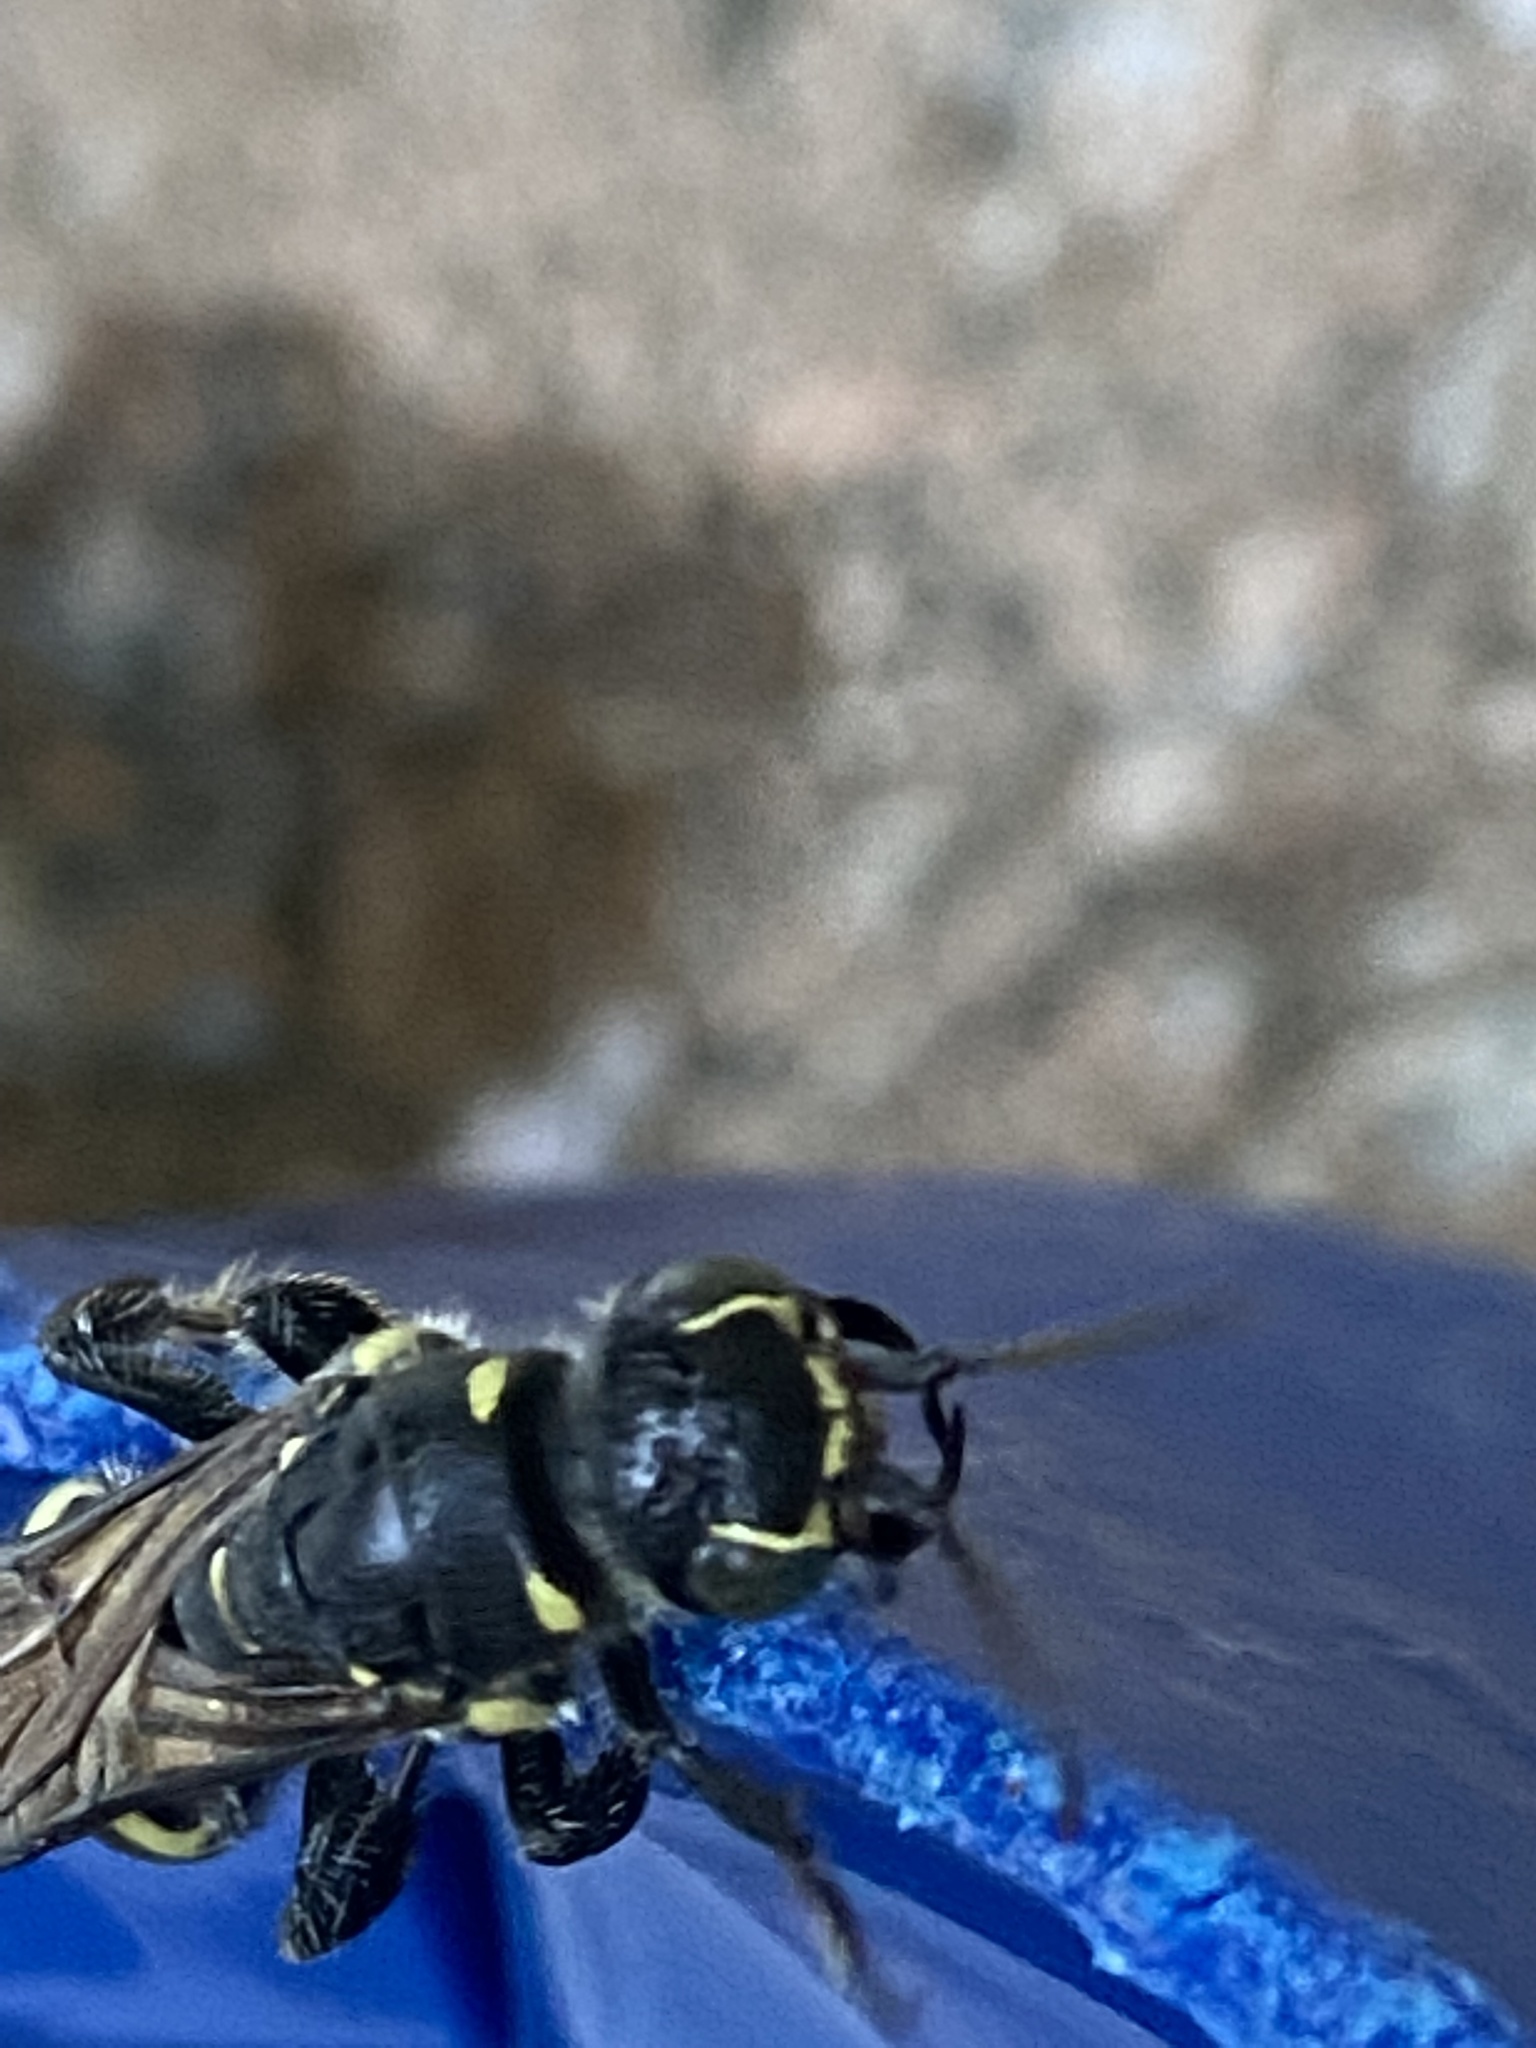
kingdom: Animalia
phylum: Arthropoda
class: Insecta
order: Hymenoptera
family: Tiphiidae
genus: Myzinum
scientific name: Myzinum obscurum
